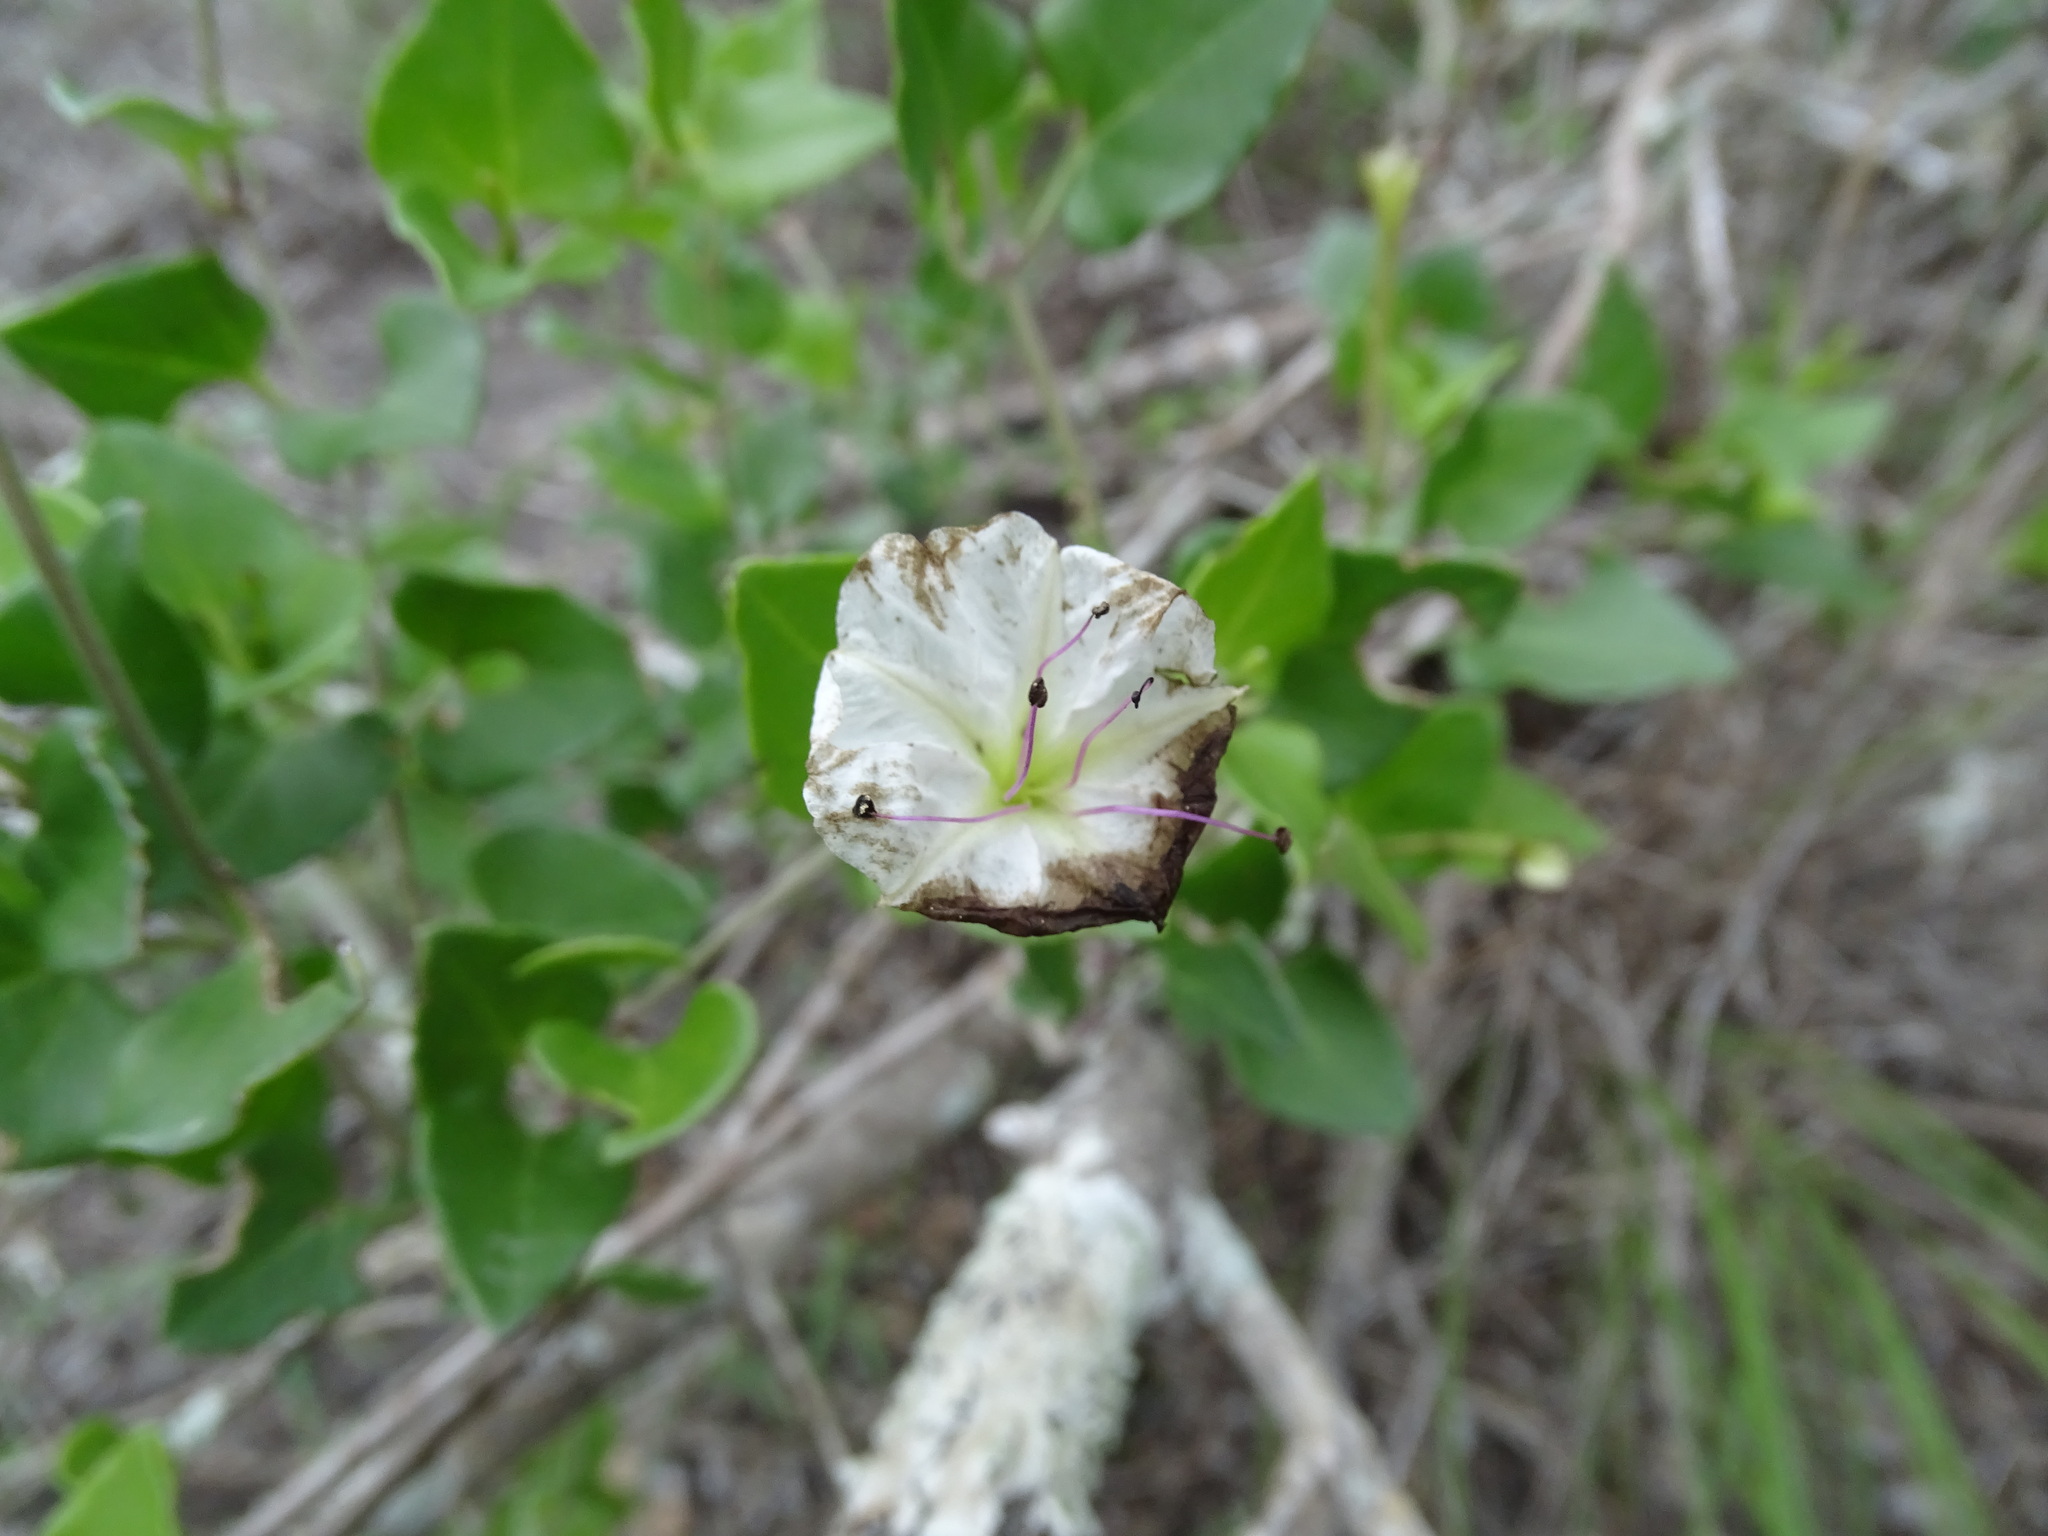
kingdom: Plantae
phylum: Tracheophyta
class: Magnoliopsida
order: Caryophyllales
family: Nyctaginaceae
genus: Acleisanthes
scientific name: Acleisanthes obtusa
